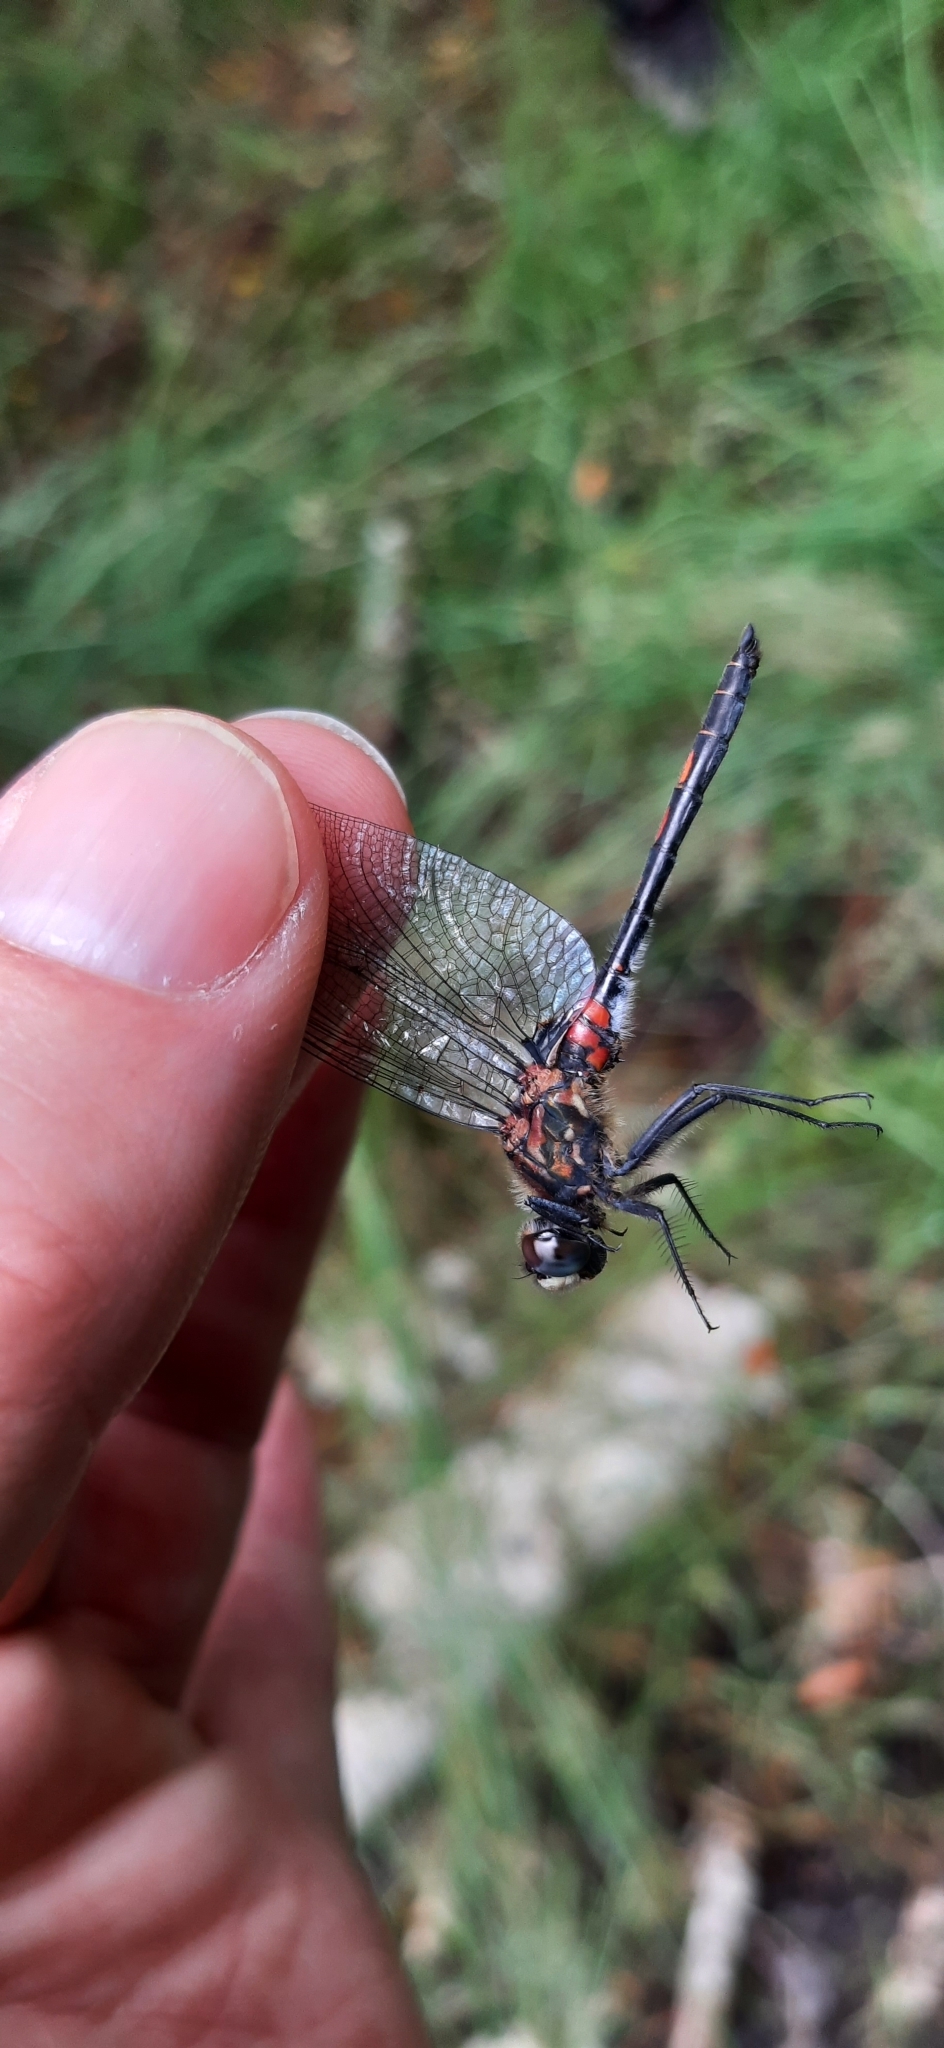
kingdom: Animalia
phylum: Arthropoda
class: Insecta
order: Odonata
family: Libellulidae
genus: Leucorrhinia
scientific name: Leucorrhinia dubia
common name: White-faced darter
